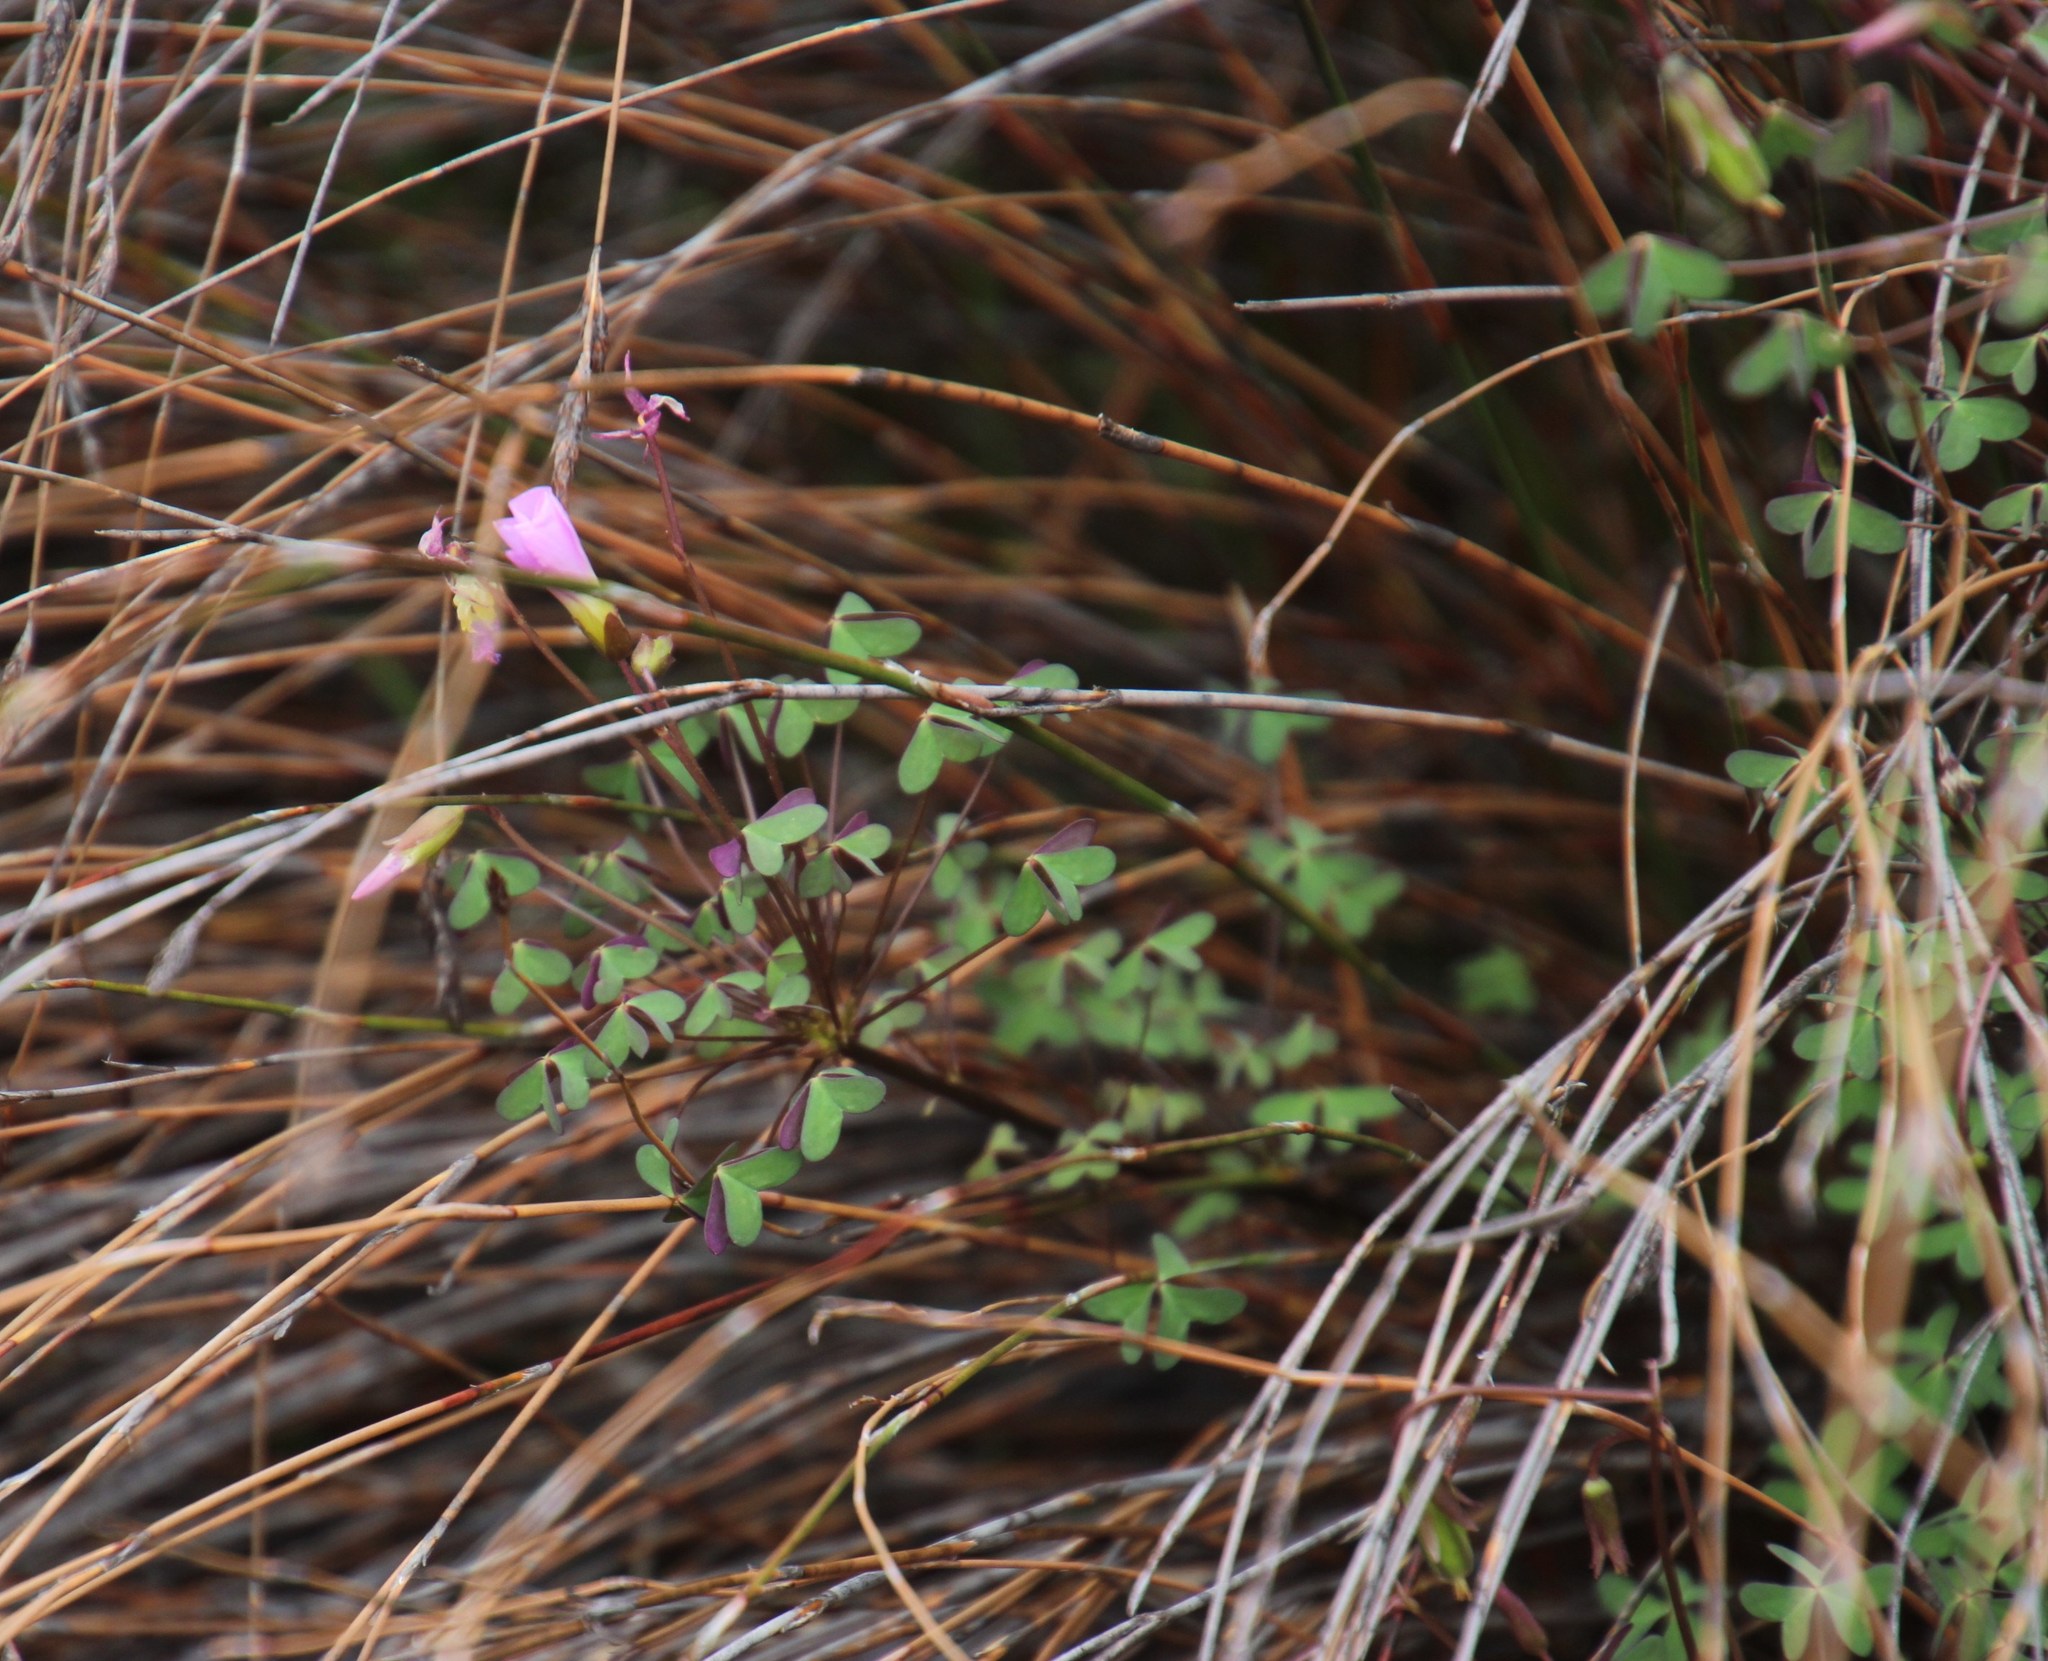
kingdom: Plantae
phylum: Tracheophyta
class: Magnoliopsida
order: Oxalidales
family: Oxalidaceae
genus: Oxalis
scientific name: Oxalis comosa
